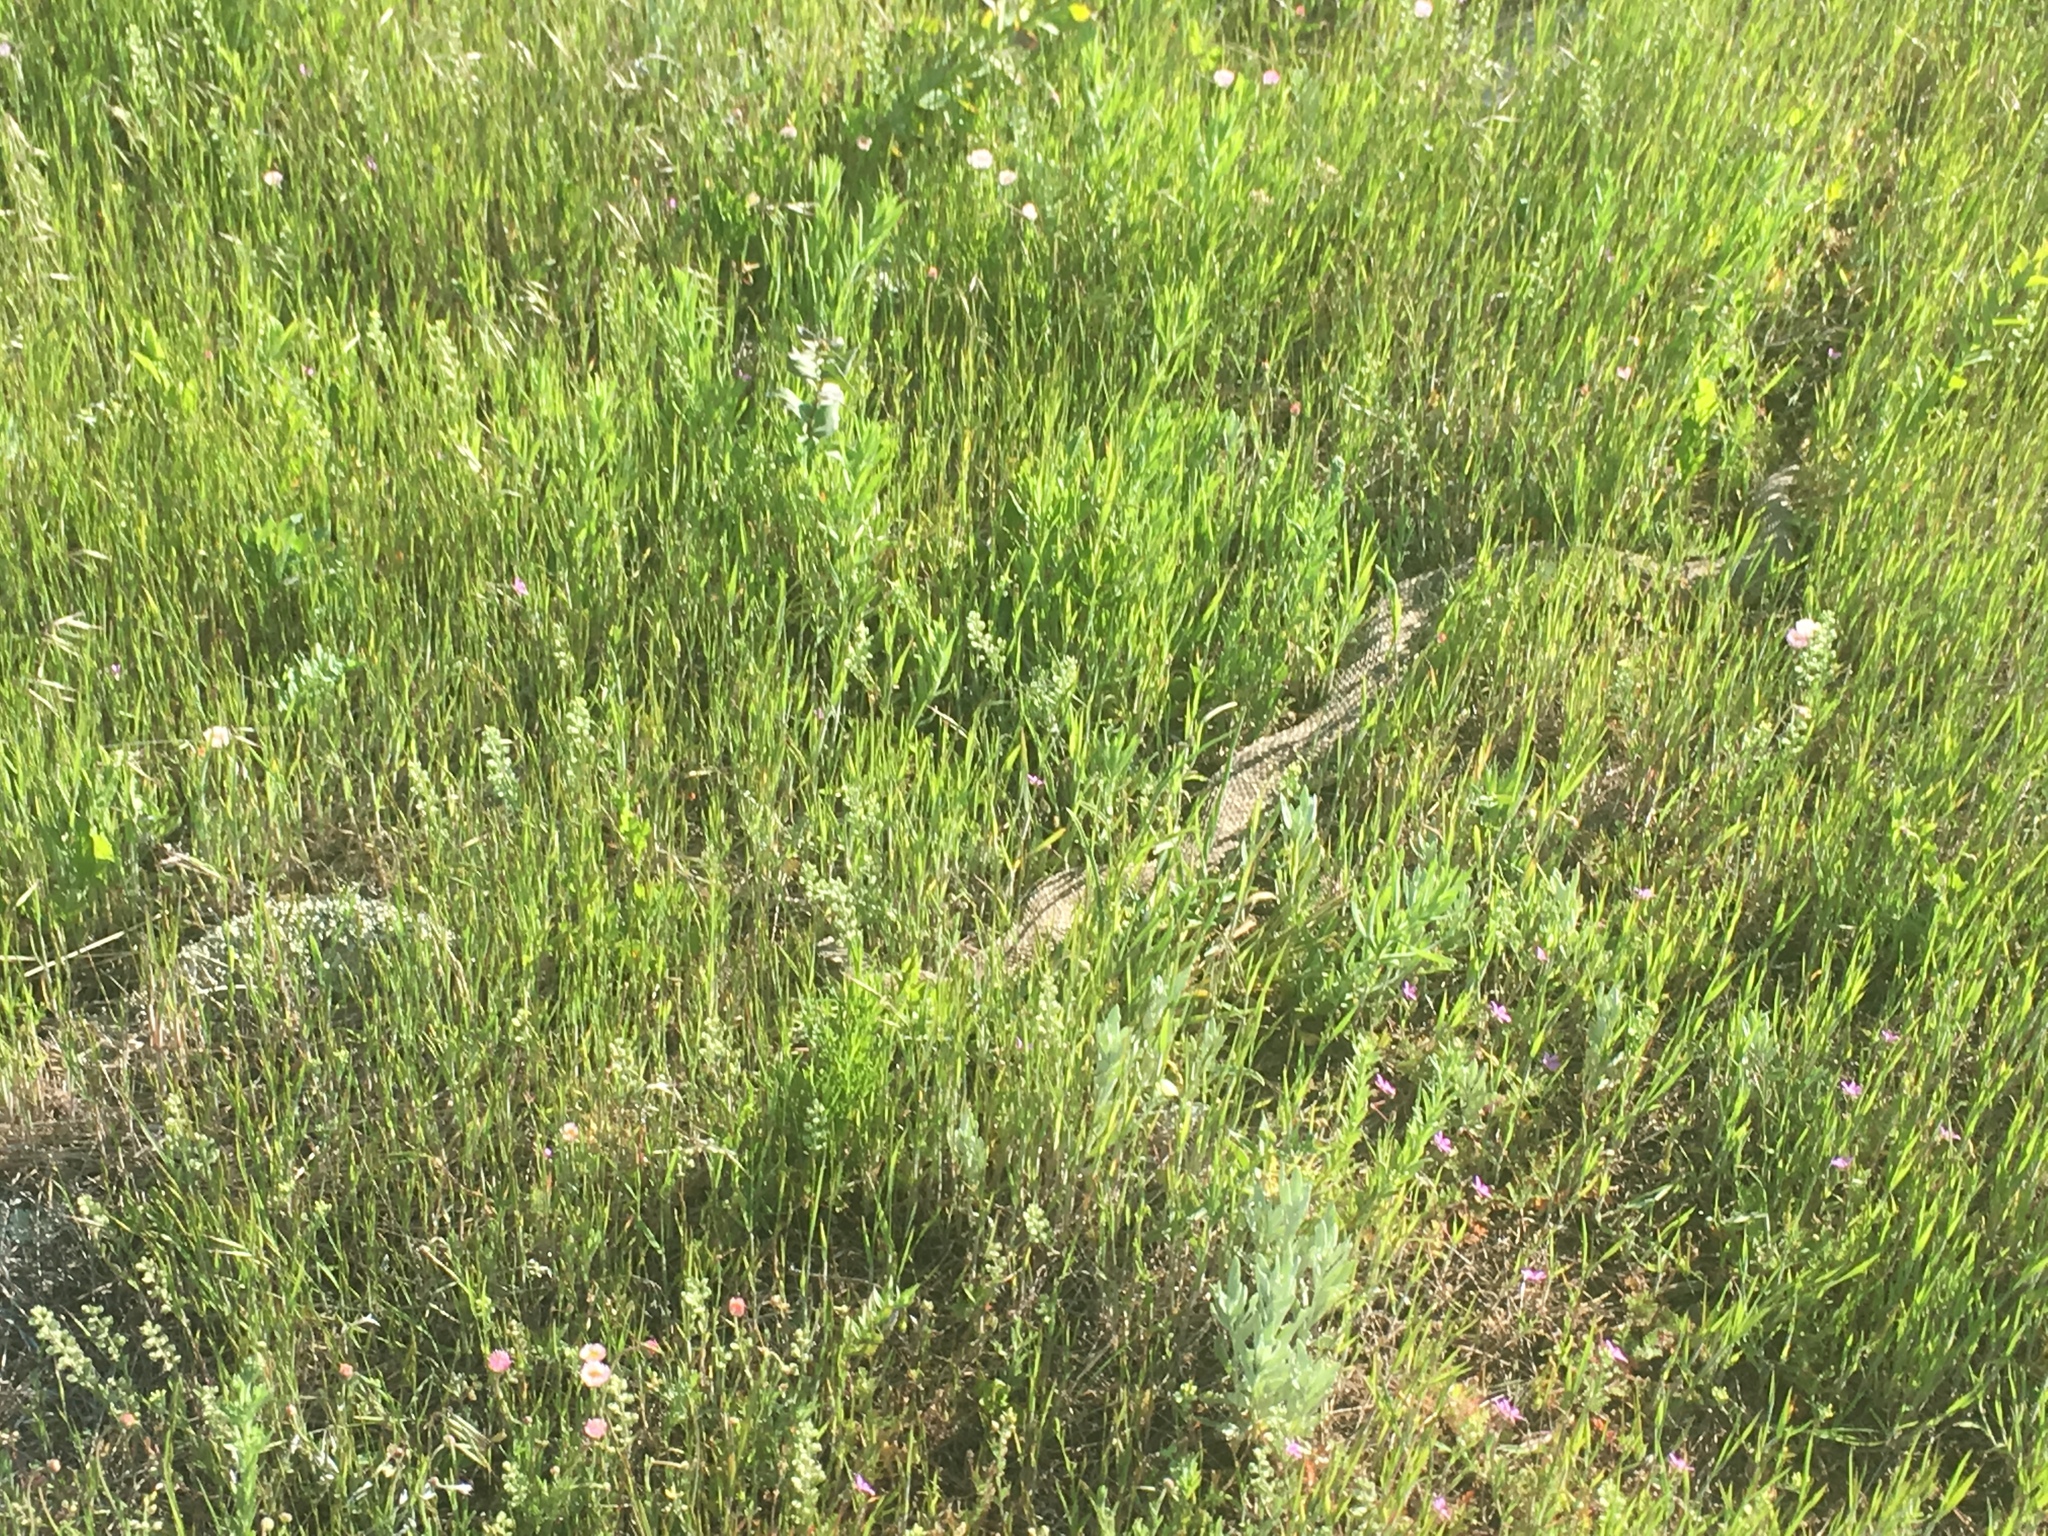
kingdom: Animalia
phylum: Chordata
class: Squamata
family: Viperidae
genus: Crotalus
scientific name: Crotalus viridis
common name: Prairie rattlesnake
